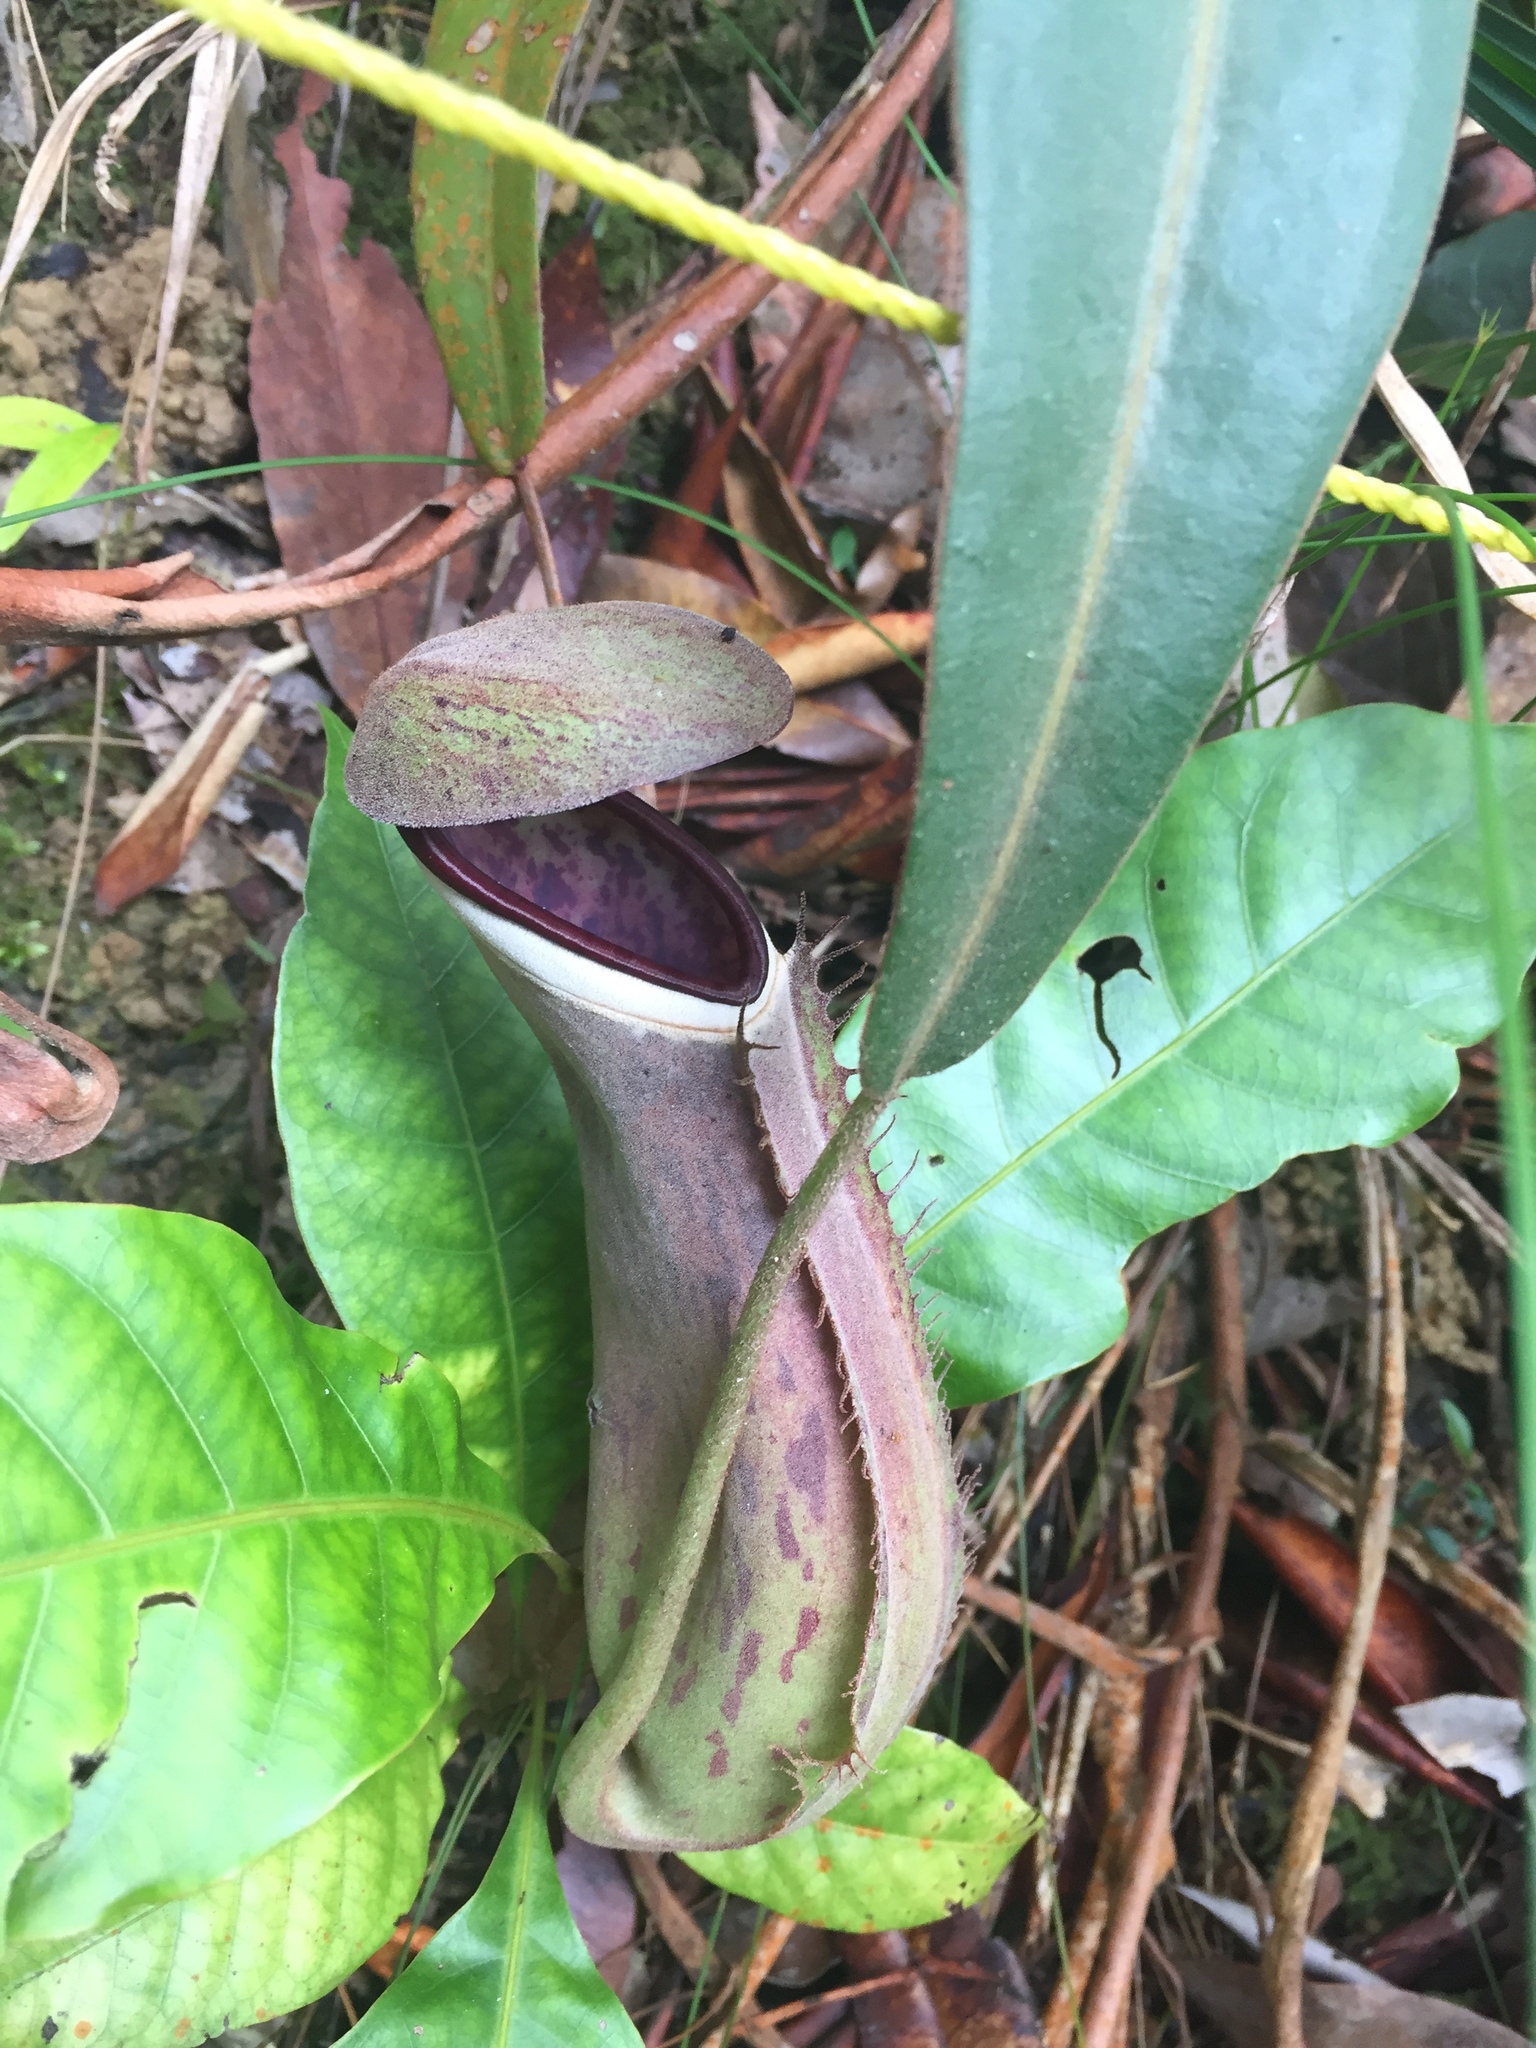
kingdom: Plantae
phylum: Tracheophyta
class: Magnoliopsida
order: Caryophyllales
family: Nepenthaceae
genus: Nepenthes
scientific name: Nepenthes albomarginata
